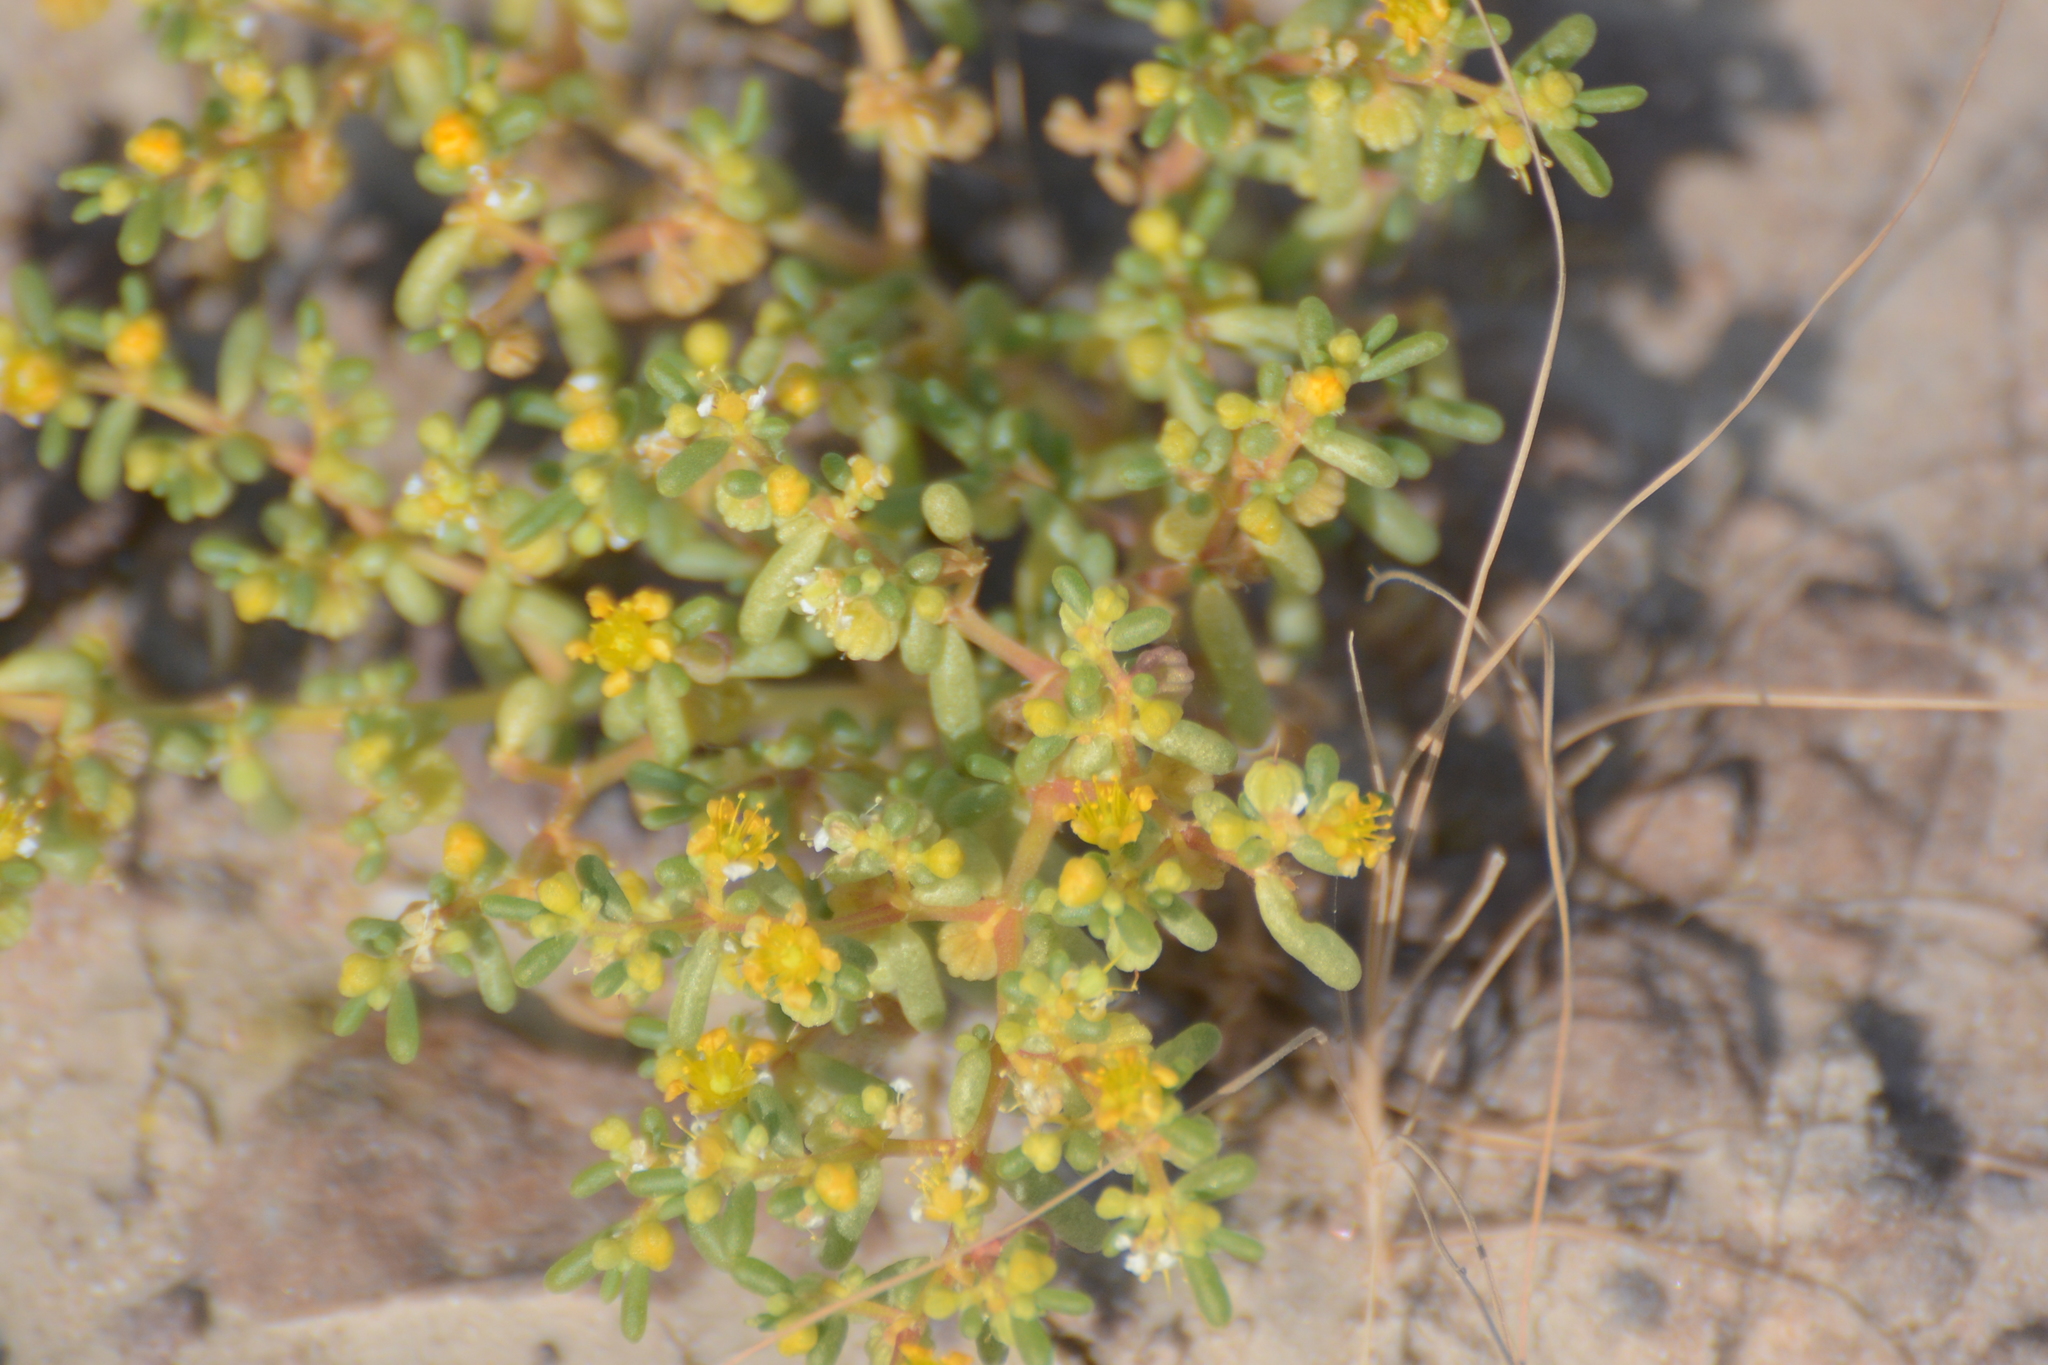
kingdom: Plantae
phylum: Tracheophyta
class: Magnoliopsida
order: Zygophyllales
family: Zygophyllaceae
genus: Tetraena
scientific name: Tetraena simplex
